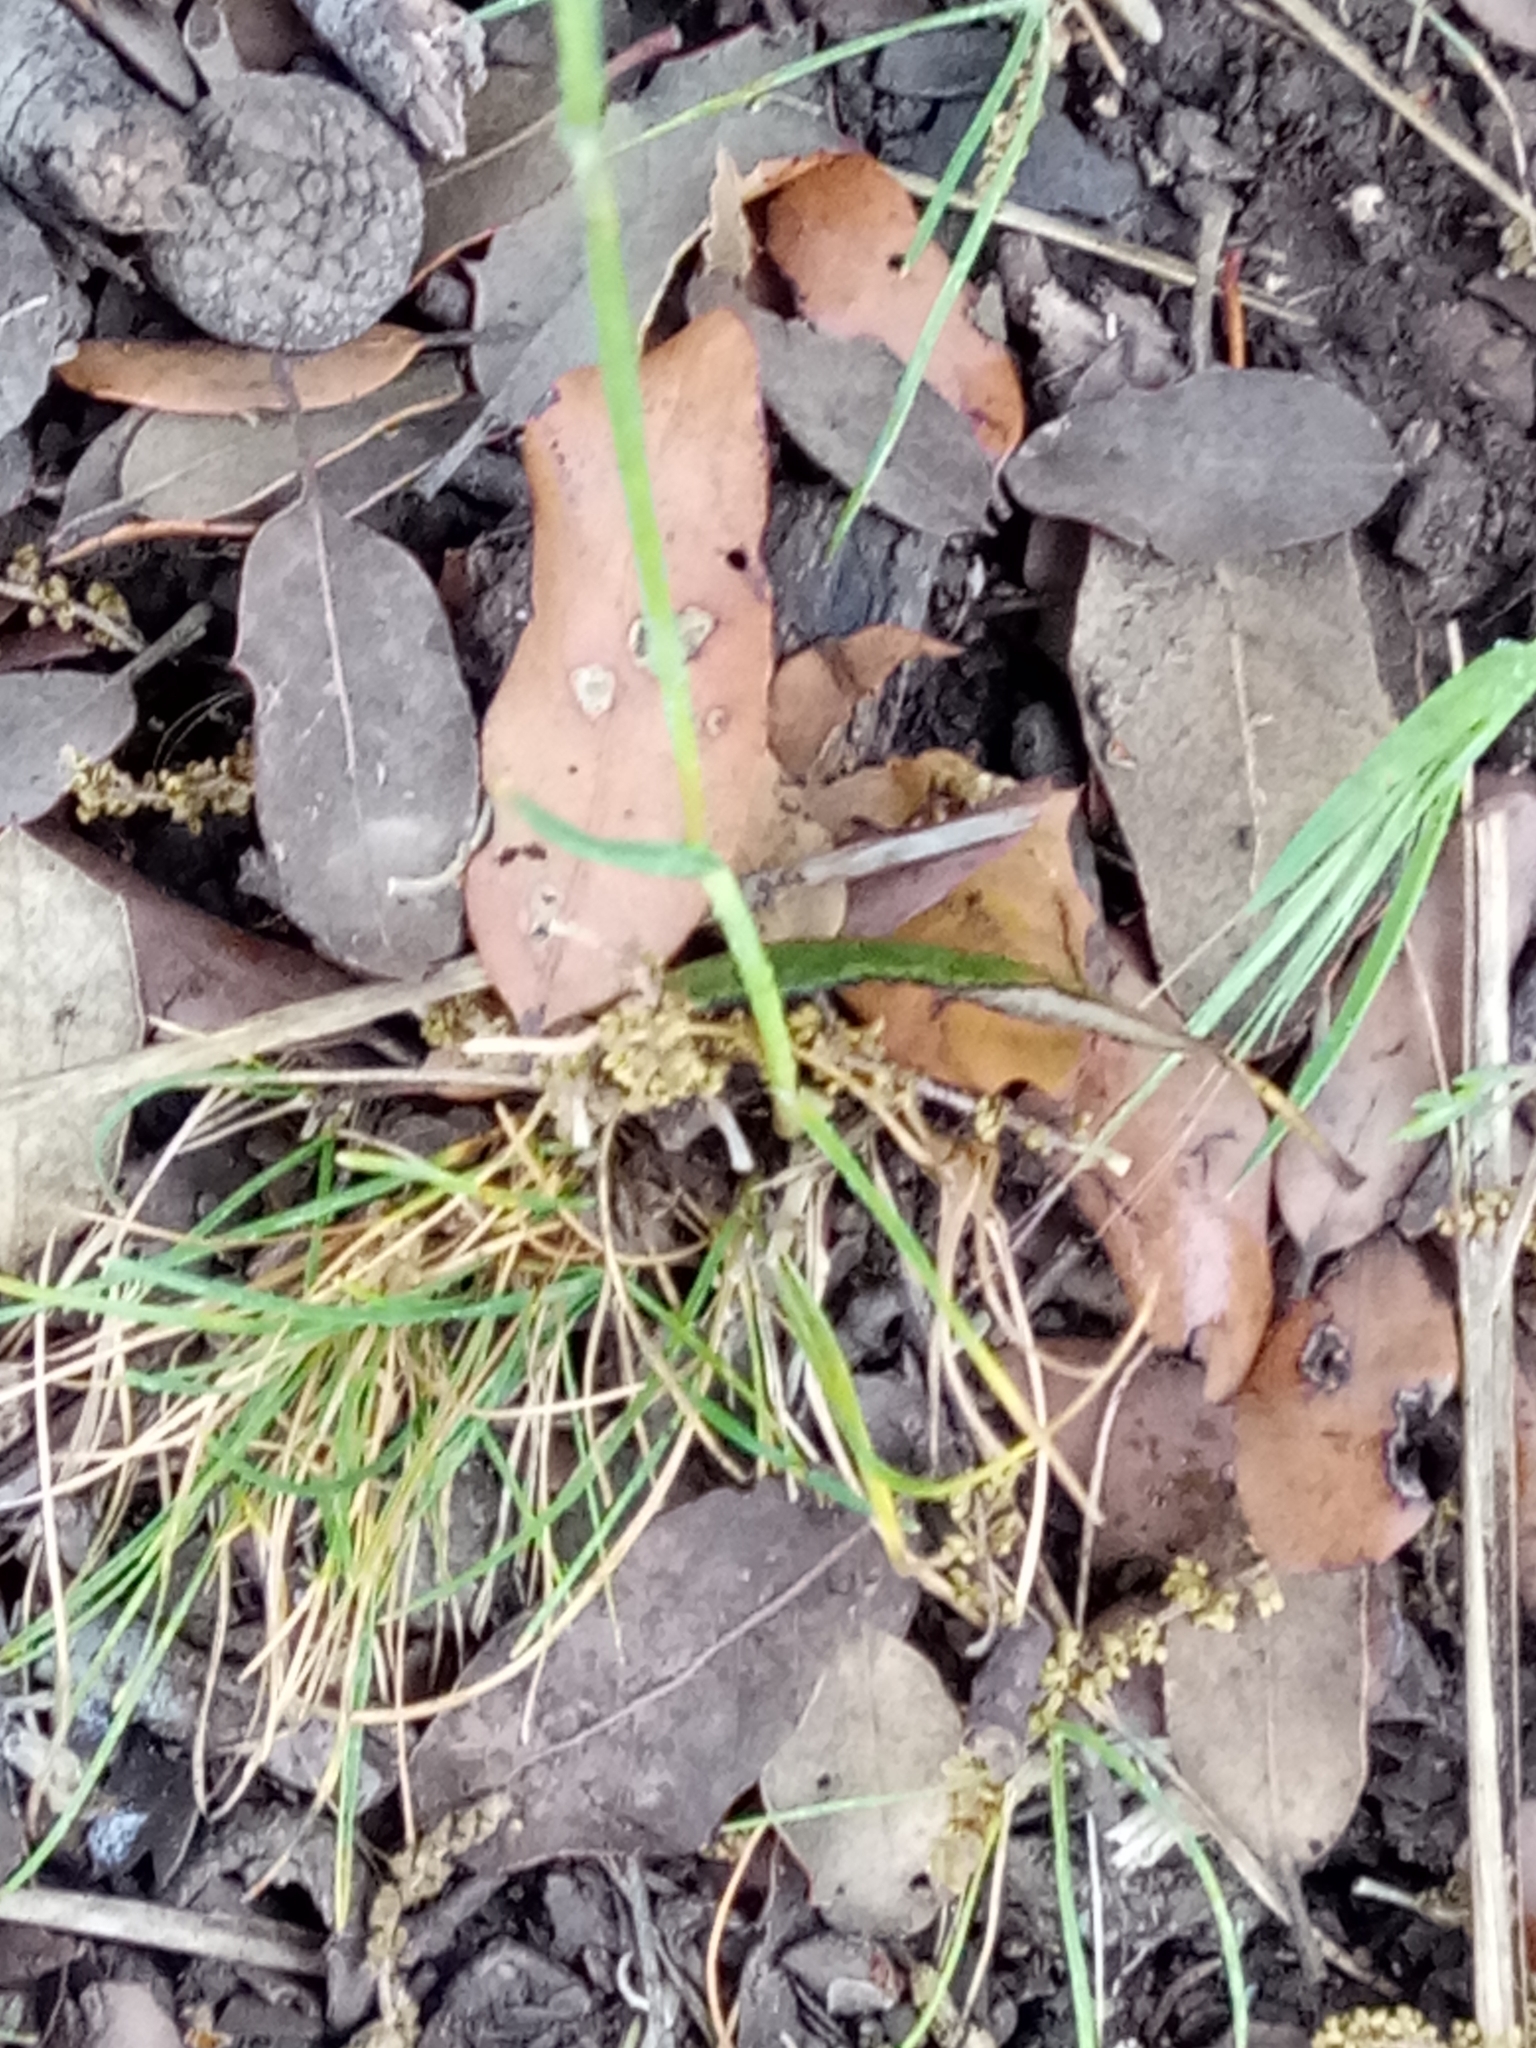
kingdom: Plantae
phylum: Tracheophyta
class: Liliopsida
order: Poales
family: Poaceae
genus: Poa
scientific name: Poa bulbosa
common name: Bulbous bluegrass
